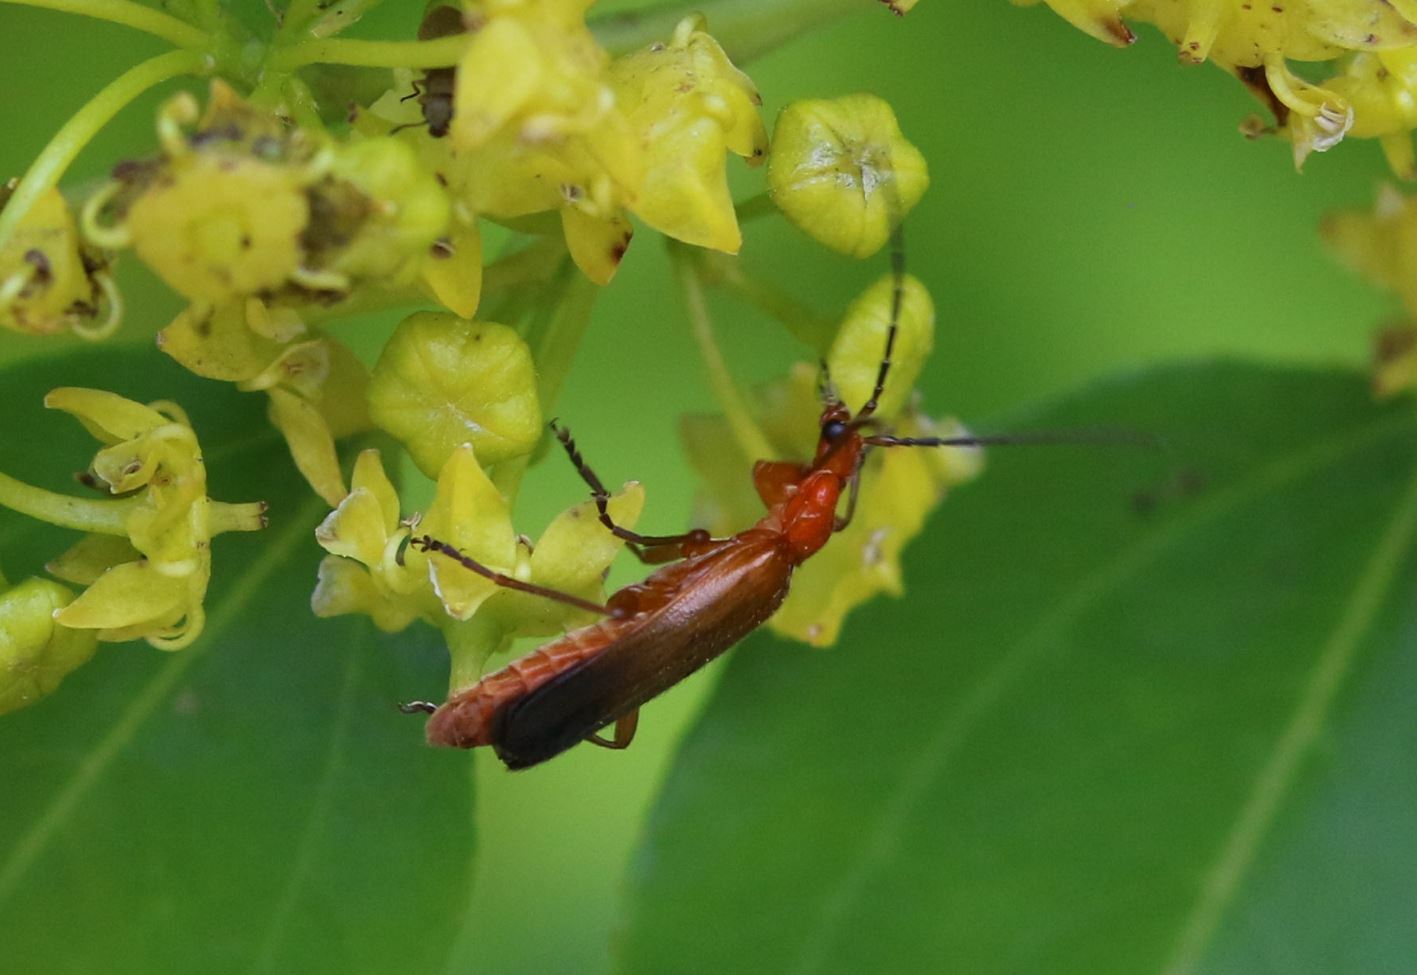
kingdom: Animalia
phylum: Arthropoda
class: Insecta
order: Coleoptera
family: Cantharidae
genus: Rhagonycha
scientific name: Rhagonycha fulva
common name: Common red soldier beetle
